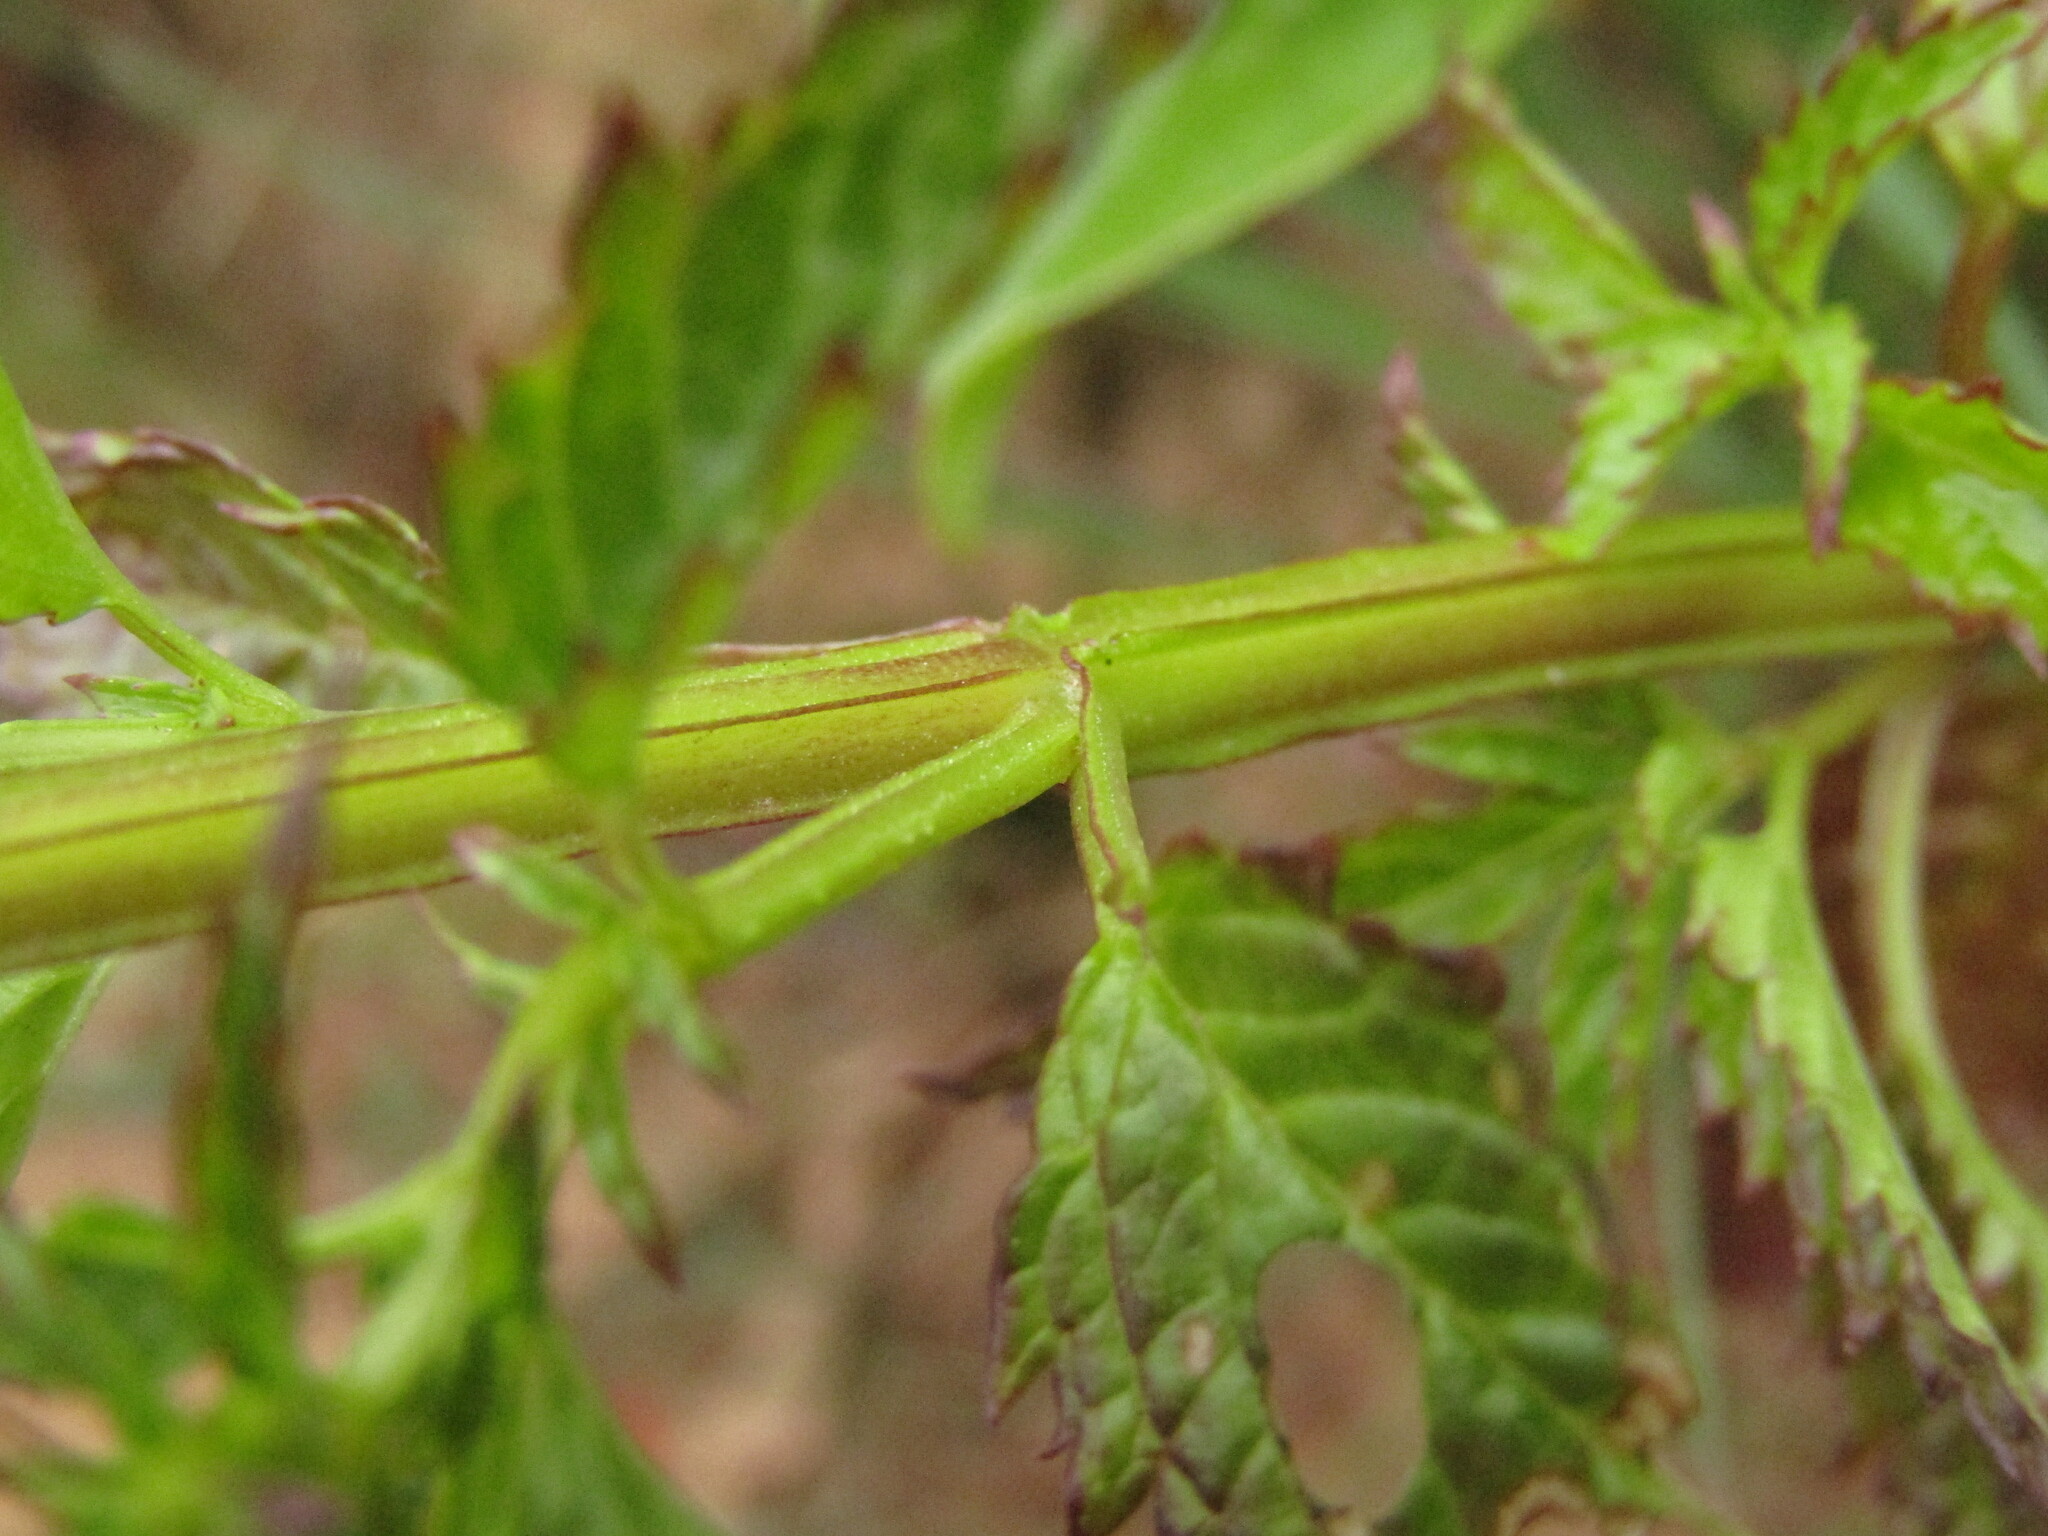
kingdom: Plantae
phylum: Tracheophyta
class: Magnoliopsida
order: Lamiales
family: Scrophulariaceae
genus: Alonsoa
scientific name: Alonsoa meridionalis
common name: Maskflower
